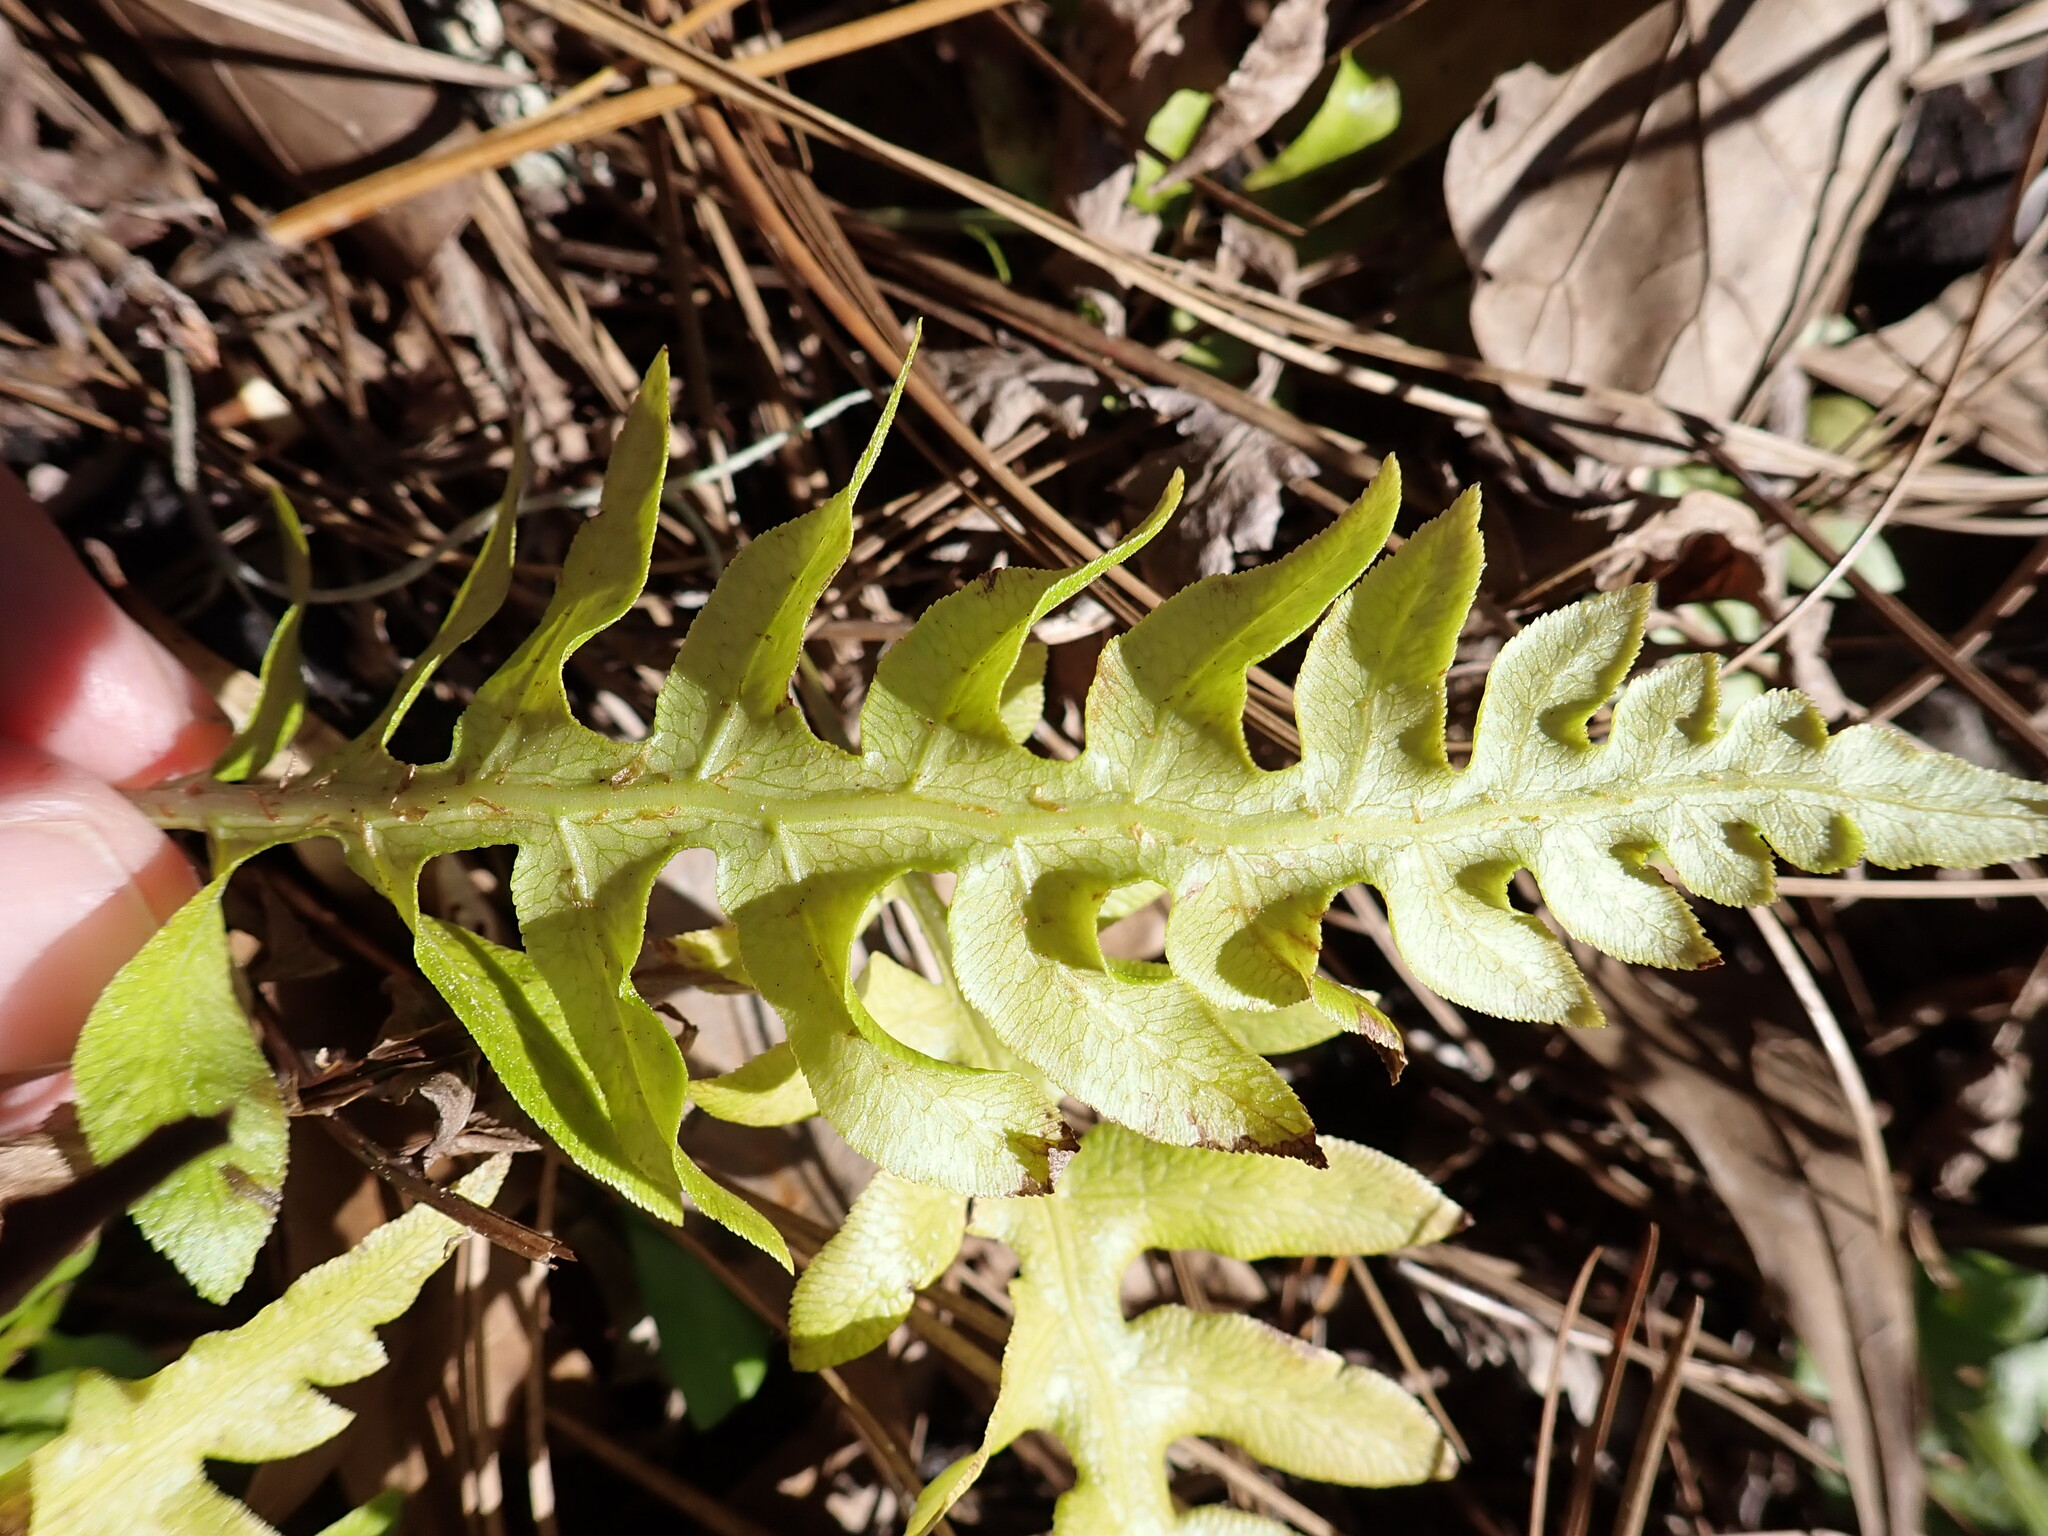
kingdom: Plantae
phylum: Tracheophyta
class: Polypodiopsida
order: Polypodiales
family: Blechnaceae
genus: Lorinseria
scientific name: Lorinseria areolata
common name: Dwarf chain fern
